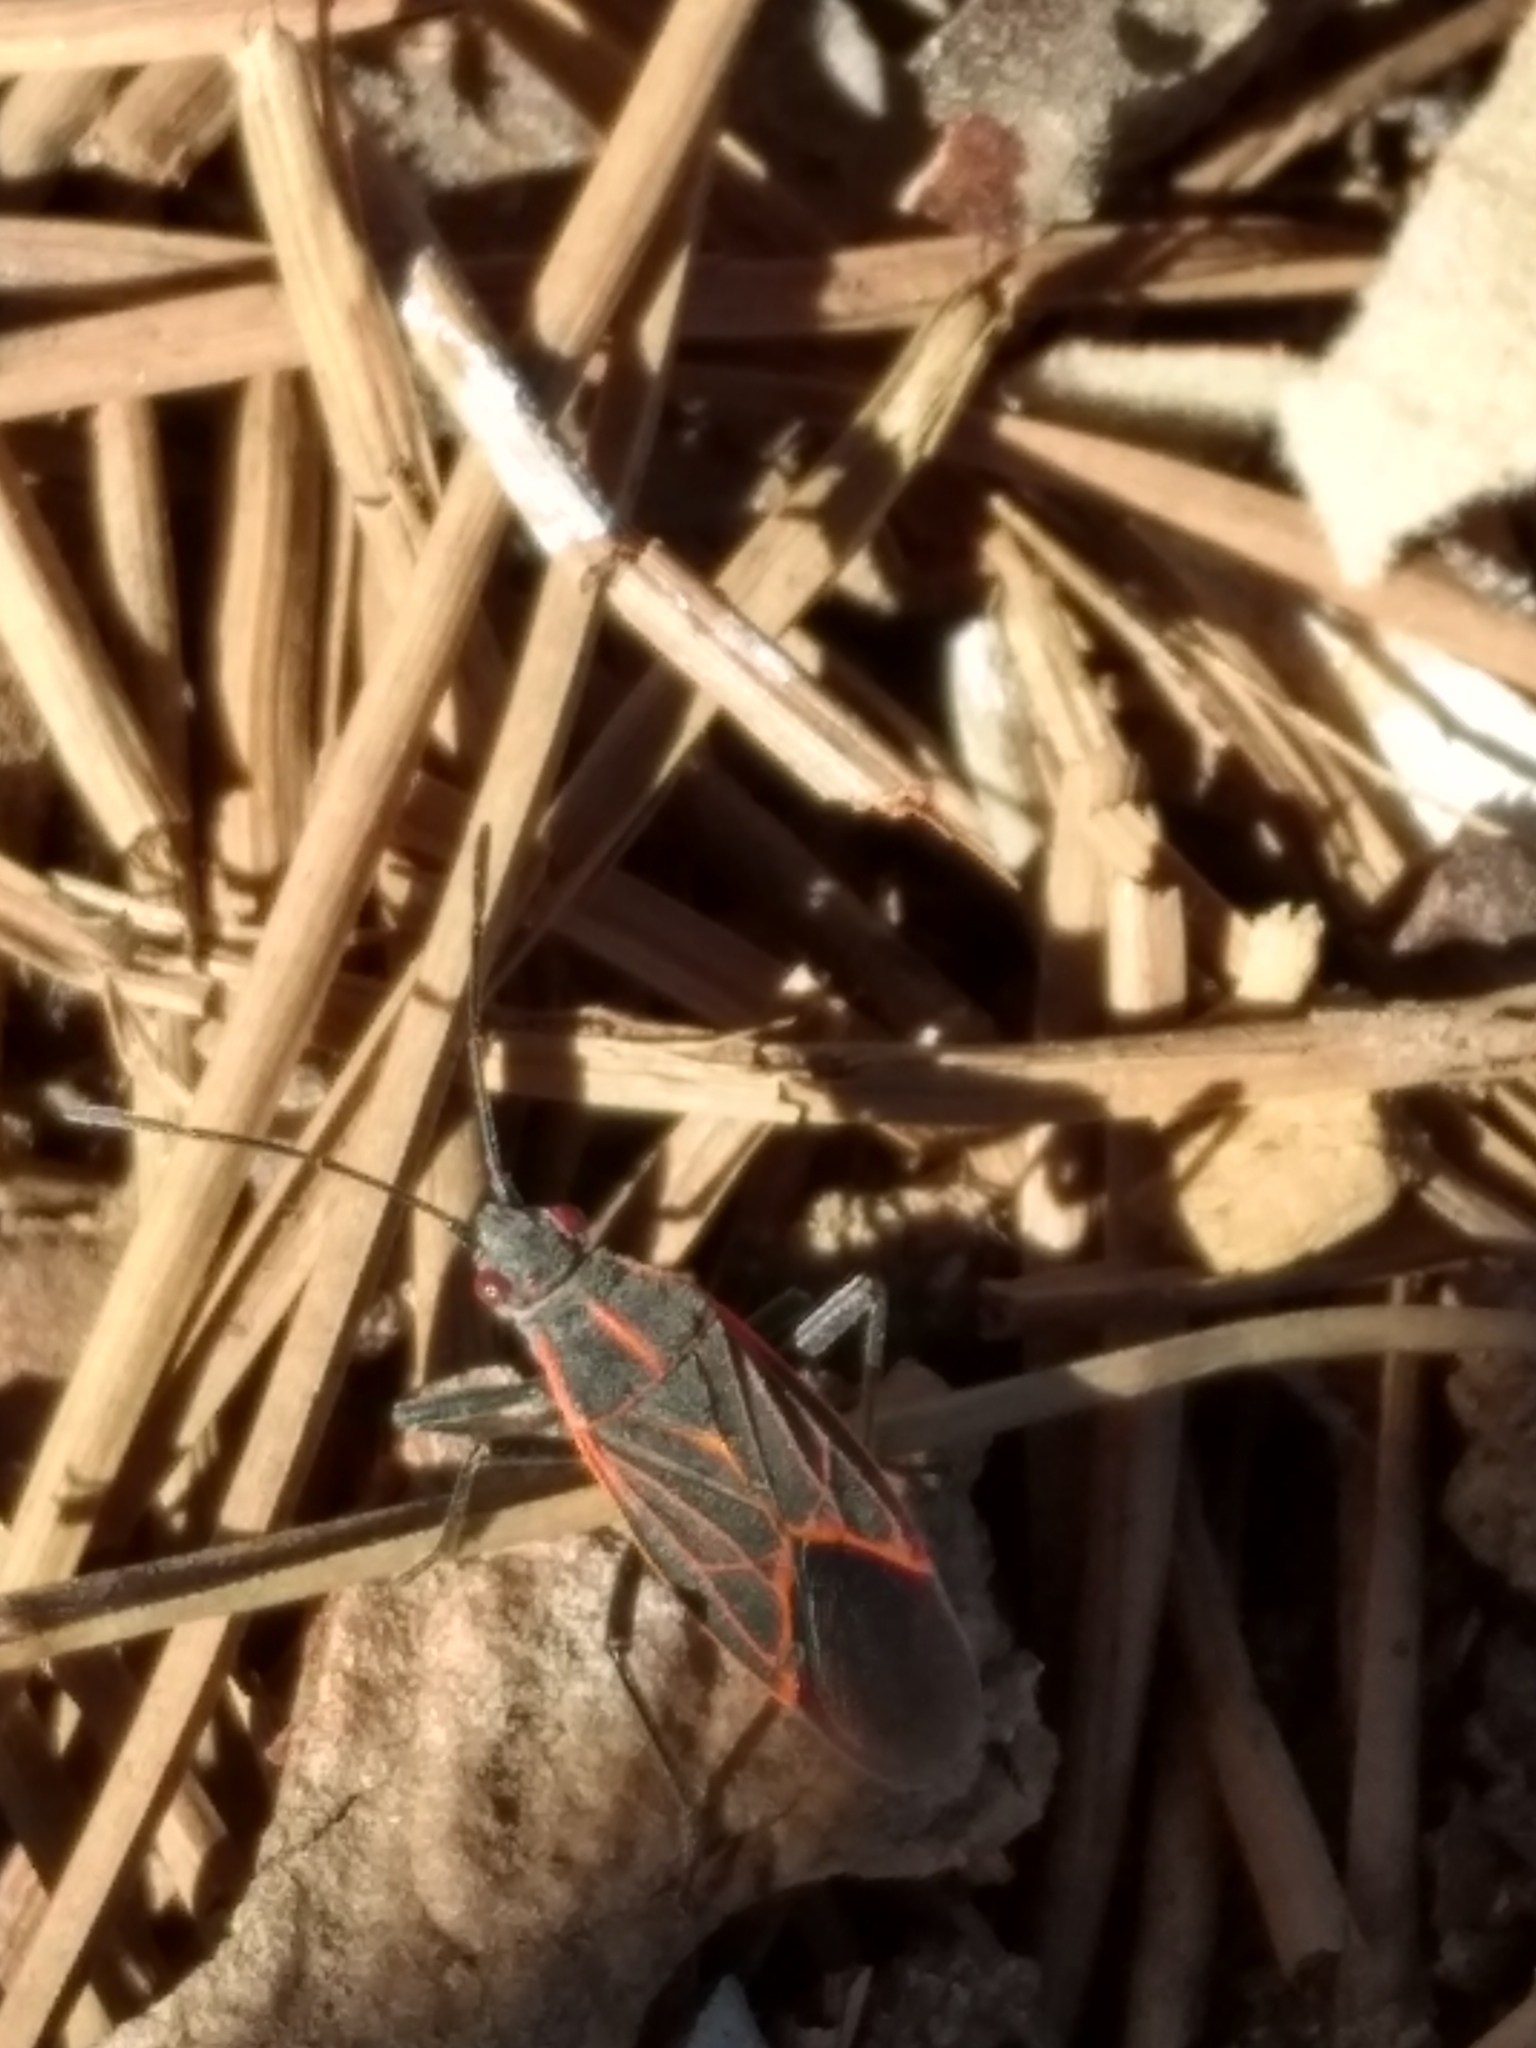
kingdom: Animalia
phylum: Arthropoda
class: Insecta
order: Hemiptera
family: Rhopalidae
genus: Boisea
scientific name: Boisea rubrolineata
